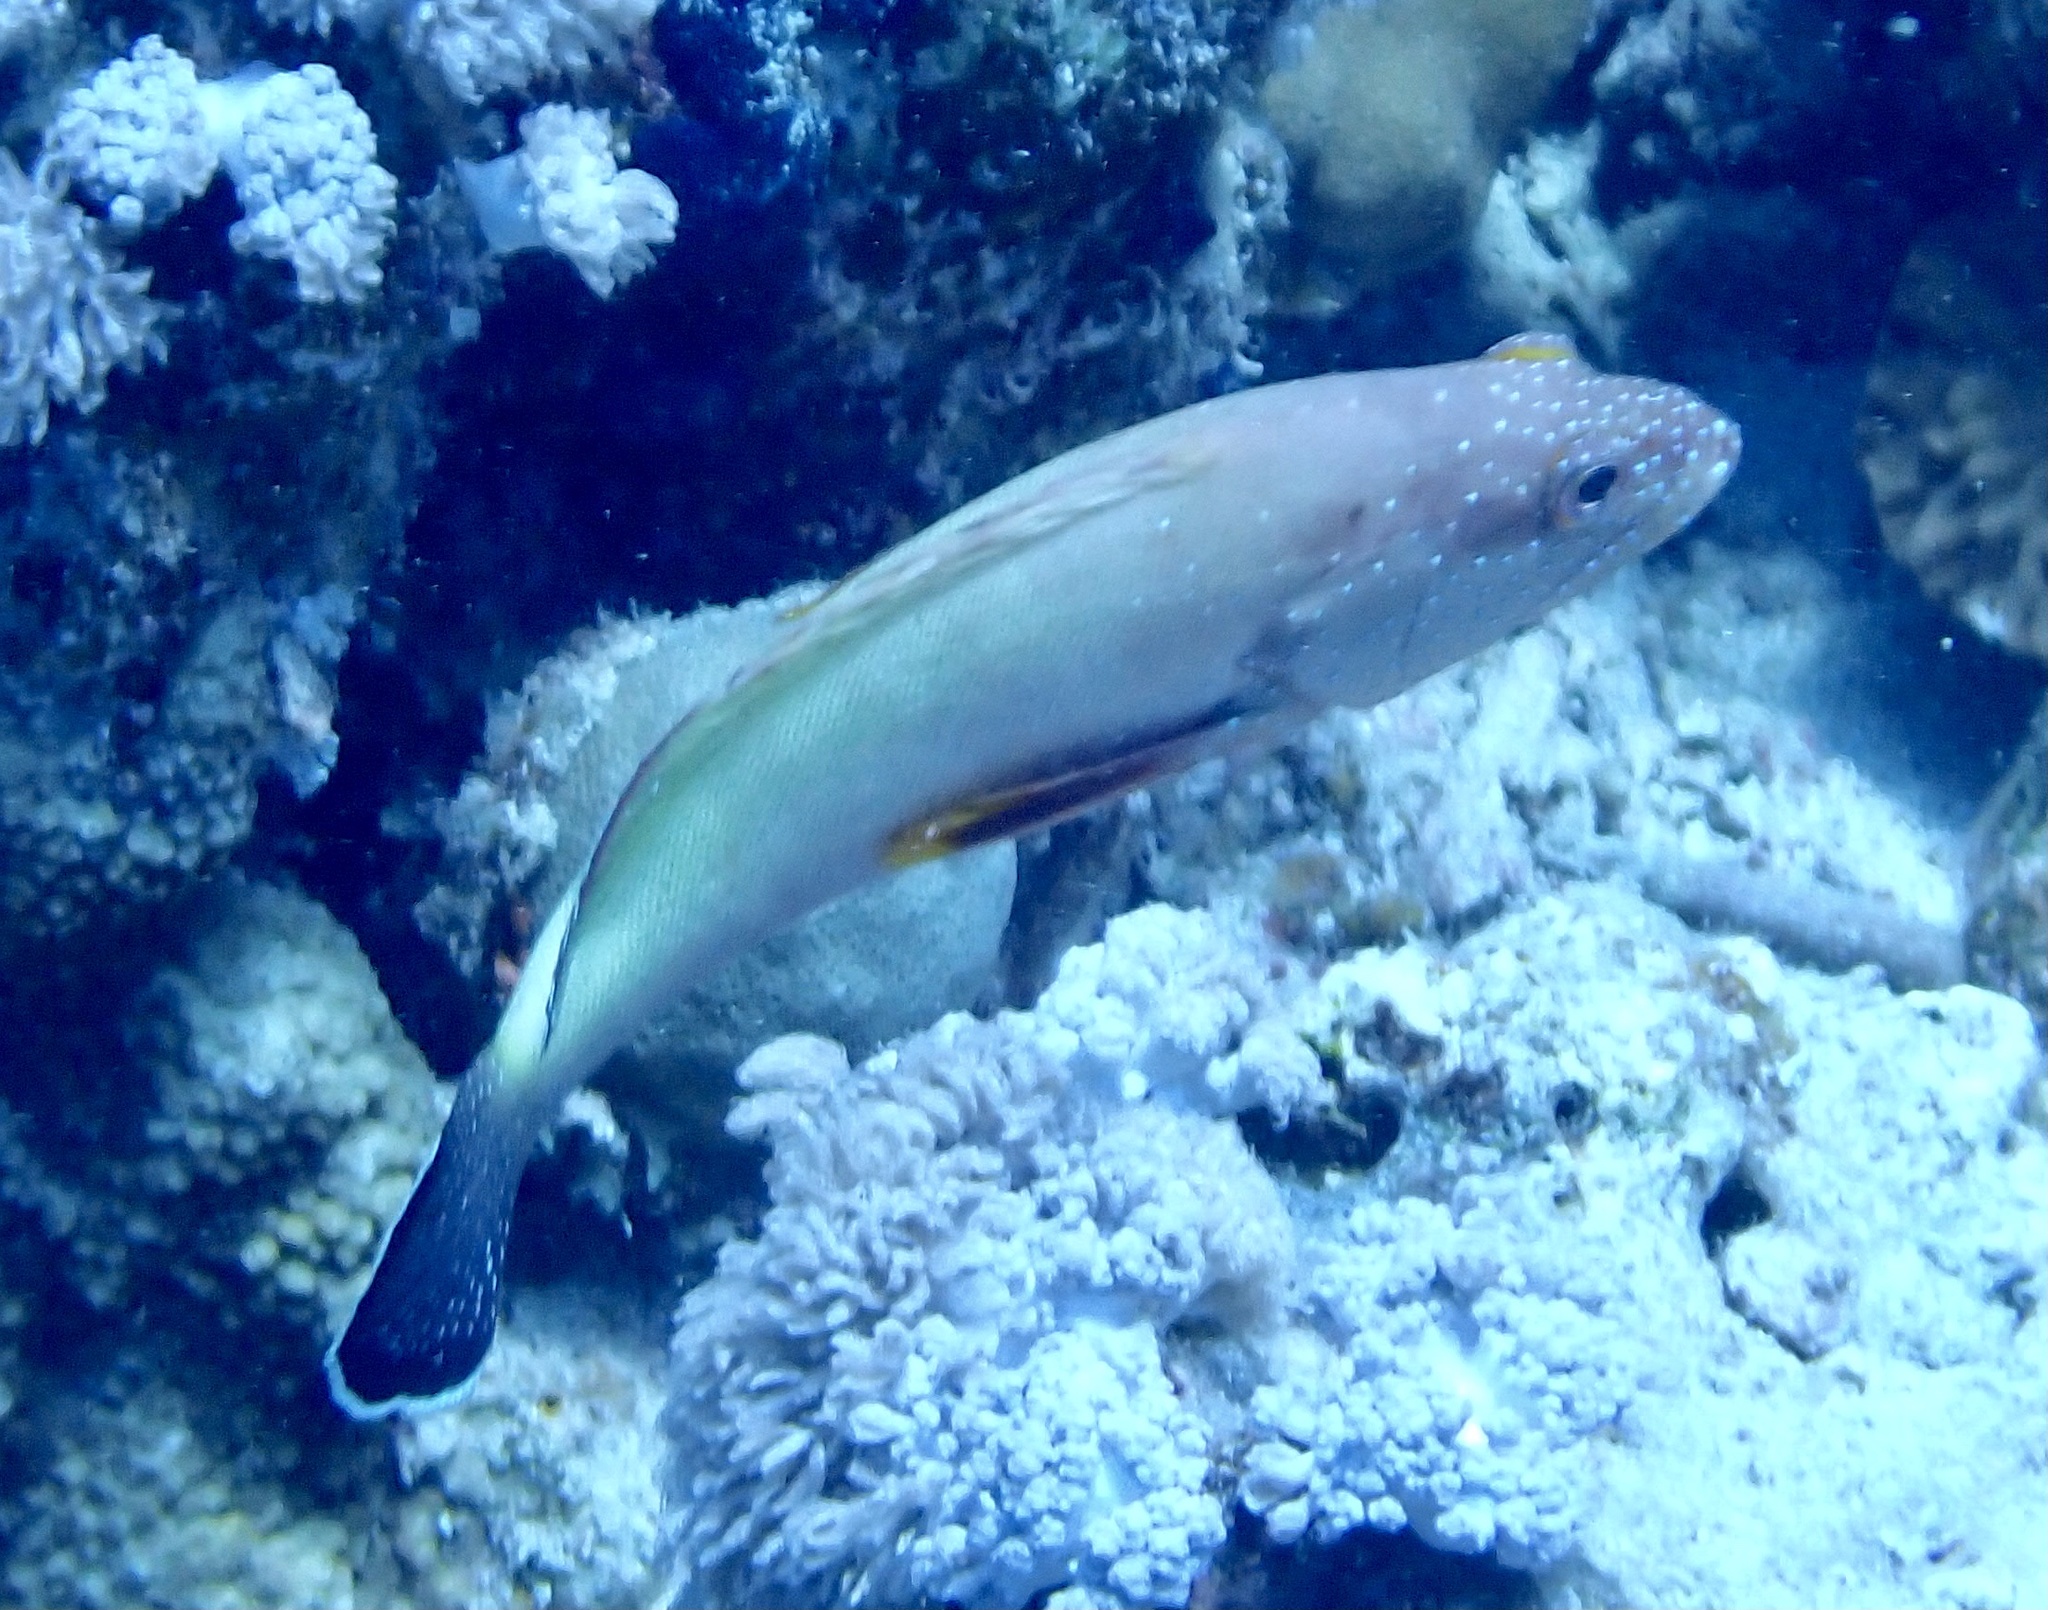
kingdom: Animalia
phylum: Chordata
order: Perciformes
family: Serranidae
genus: Cephalopholis
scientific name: Cephalopholis hemistiktos
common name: Halfspotted hind
